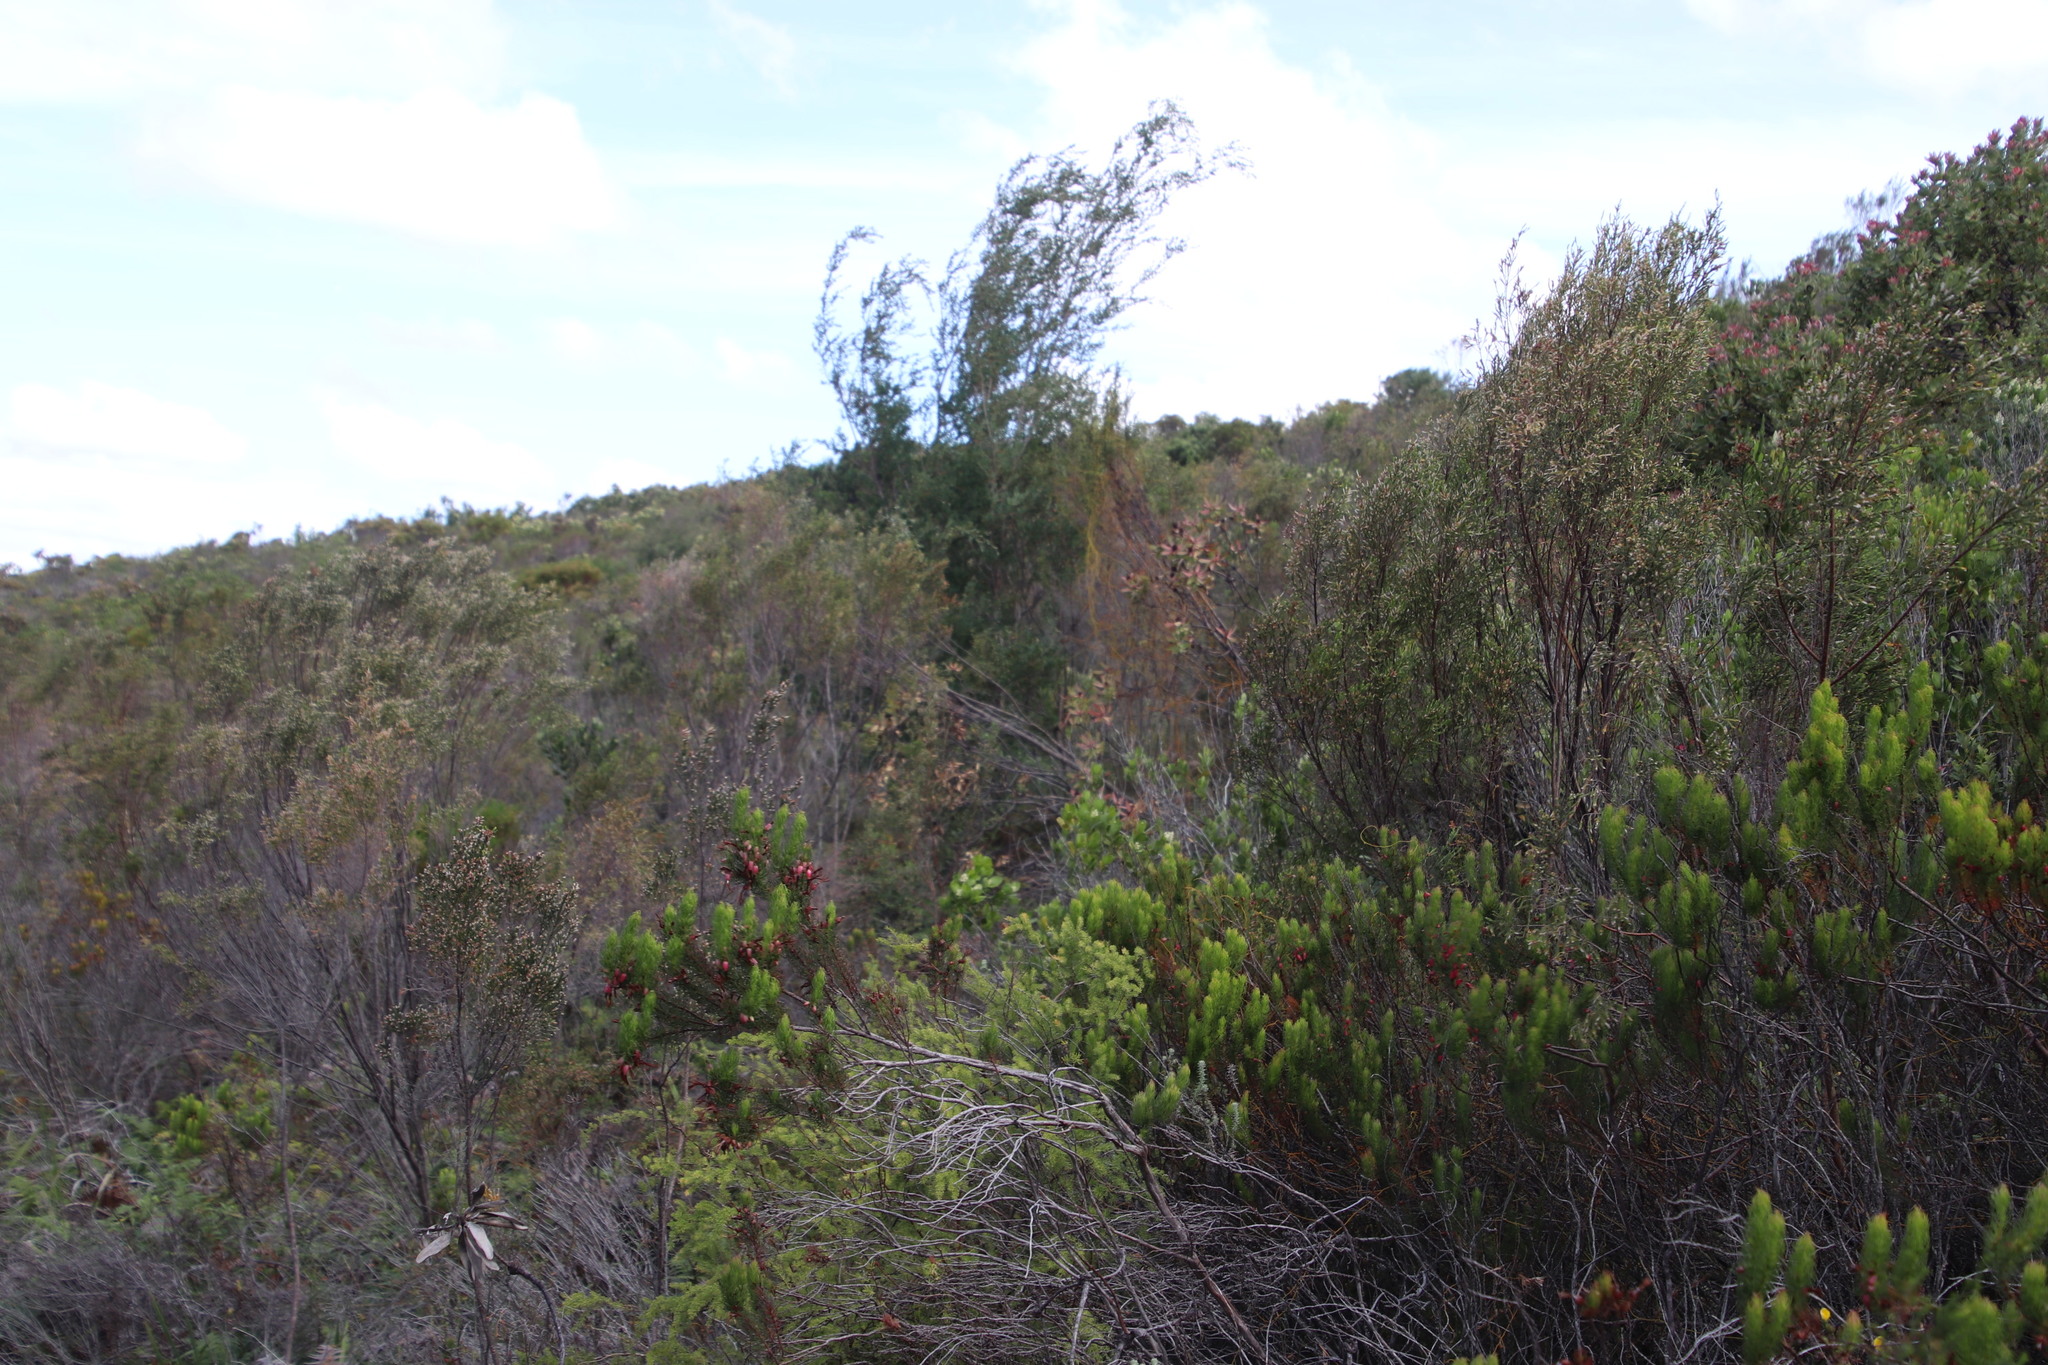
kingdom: Plantae
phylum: Tracheophyta
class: Magnoliopsida
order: Myrtales
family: Myrtaceae
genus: Leptospermum
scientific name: Leptospermum laevigatum
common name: Australian teatree
